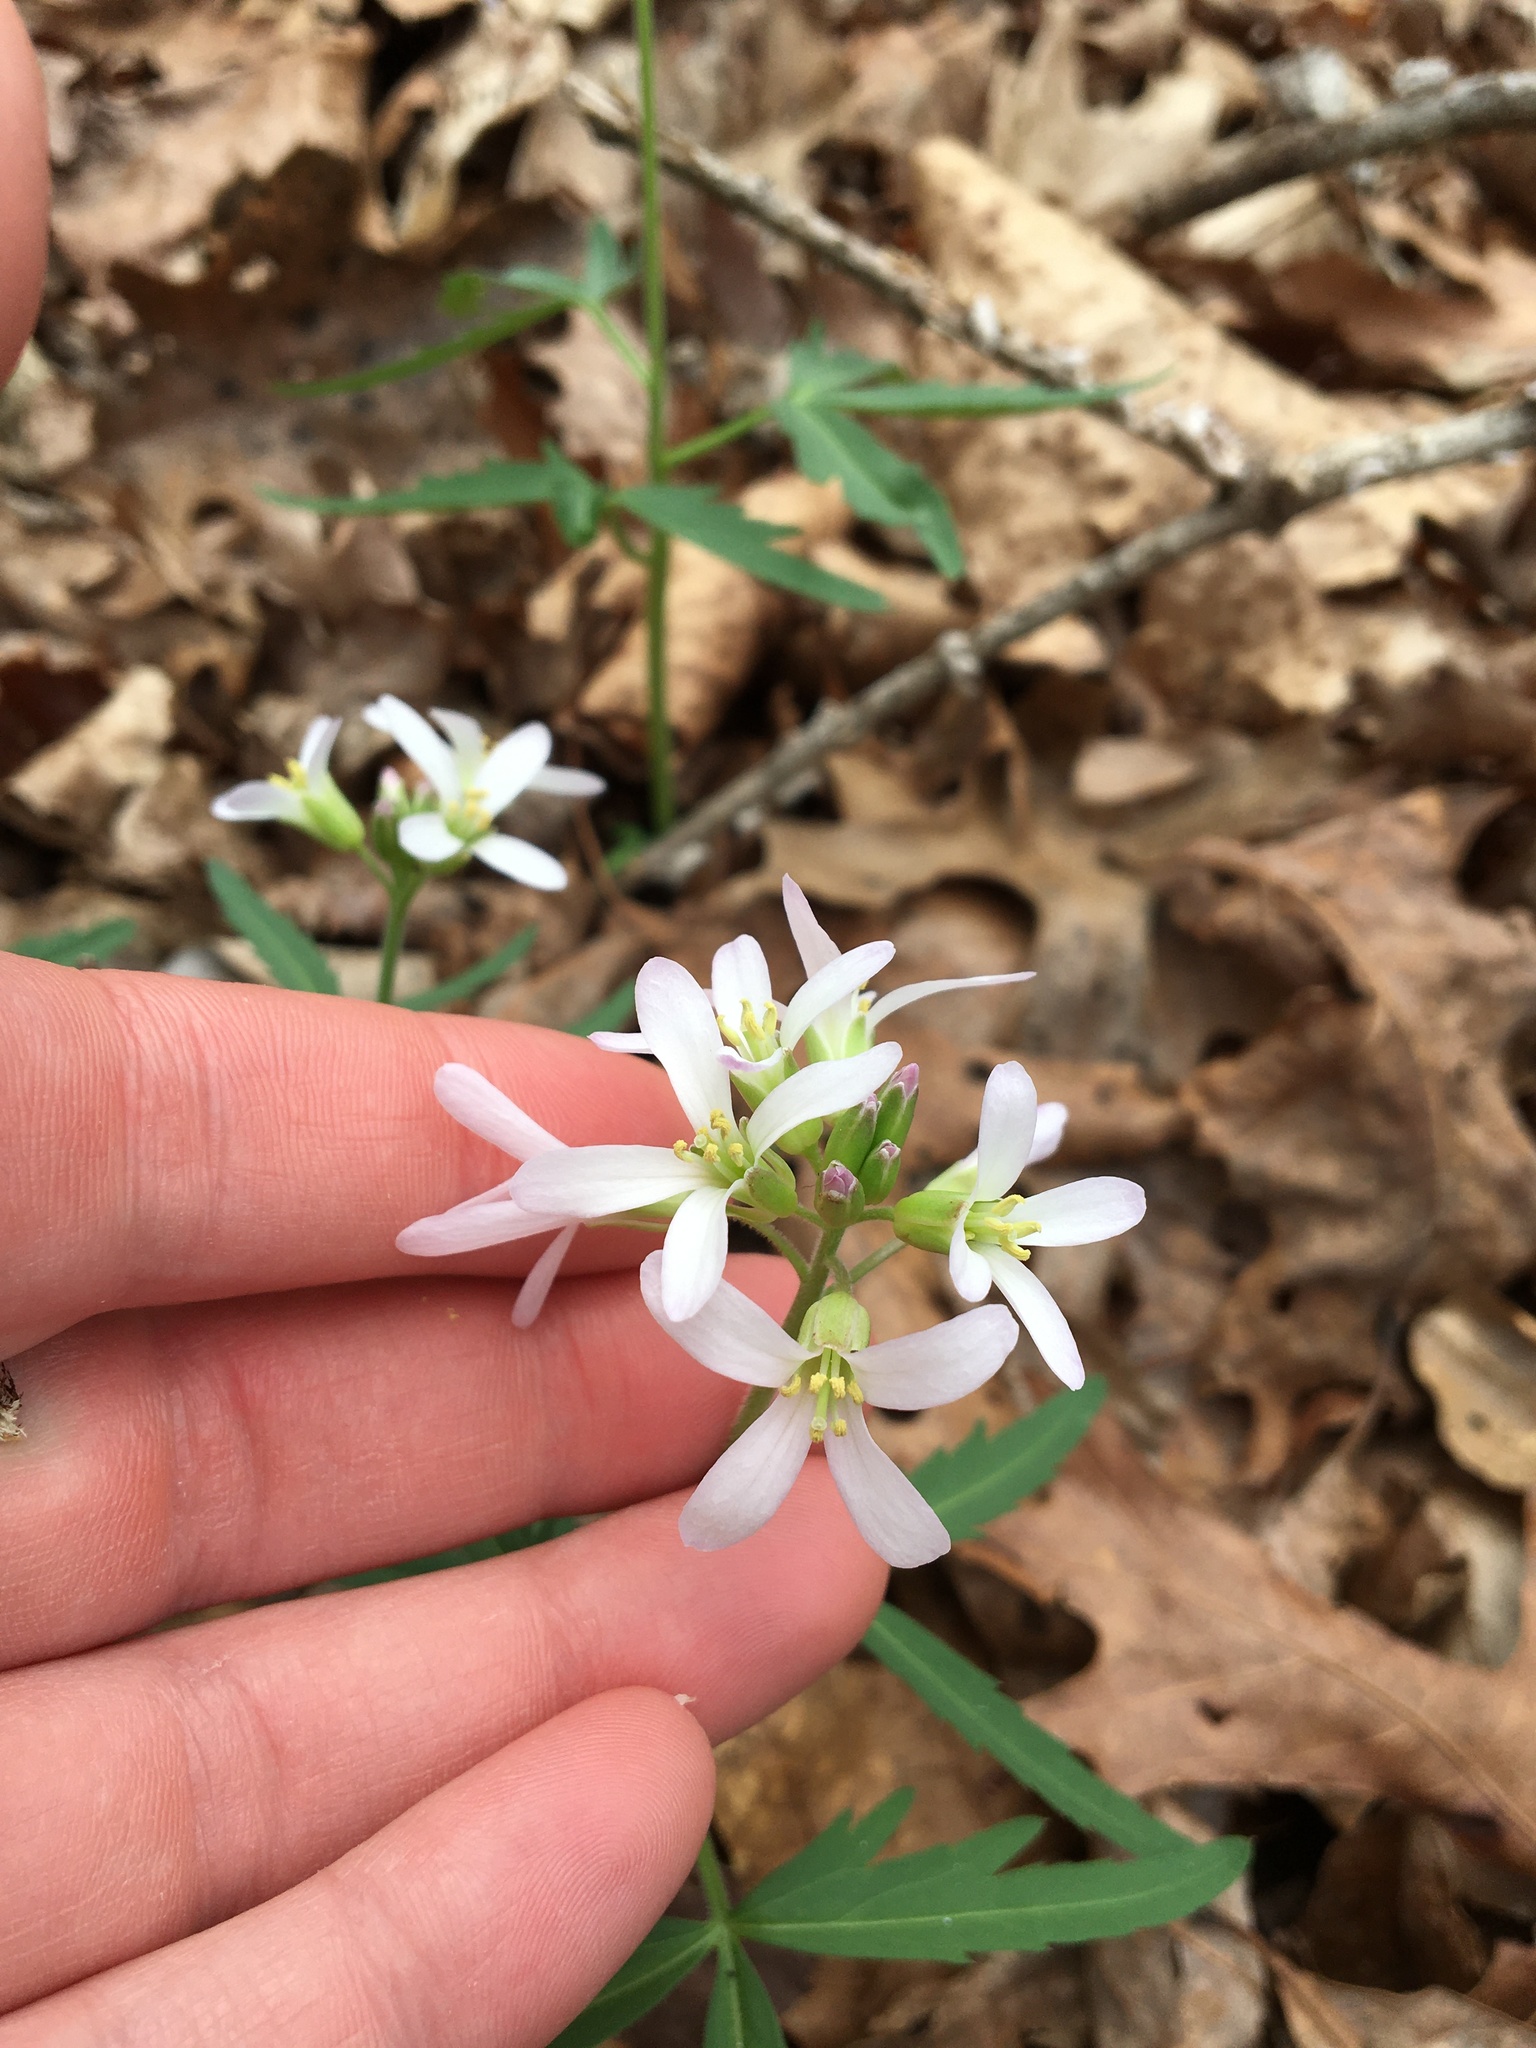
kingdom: Plantae
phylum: Tracheophyta
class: Magnoliopsida
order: Brassicales
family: Brassicaceae
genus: Cardamine
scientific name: Cardamine concatenata
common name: Cut-leaf toothcup
